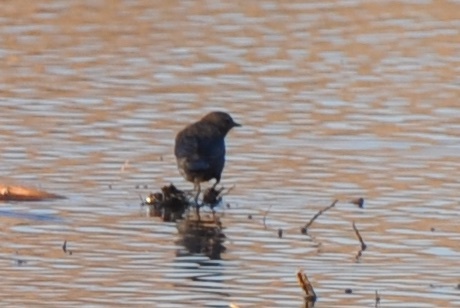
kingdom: Animalia
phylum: Chordata
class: Aves
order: Passeriformes
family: Icteridae
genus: Euphagus
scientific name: Euphagus cyanocephalus
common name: Brewer's blackbird
